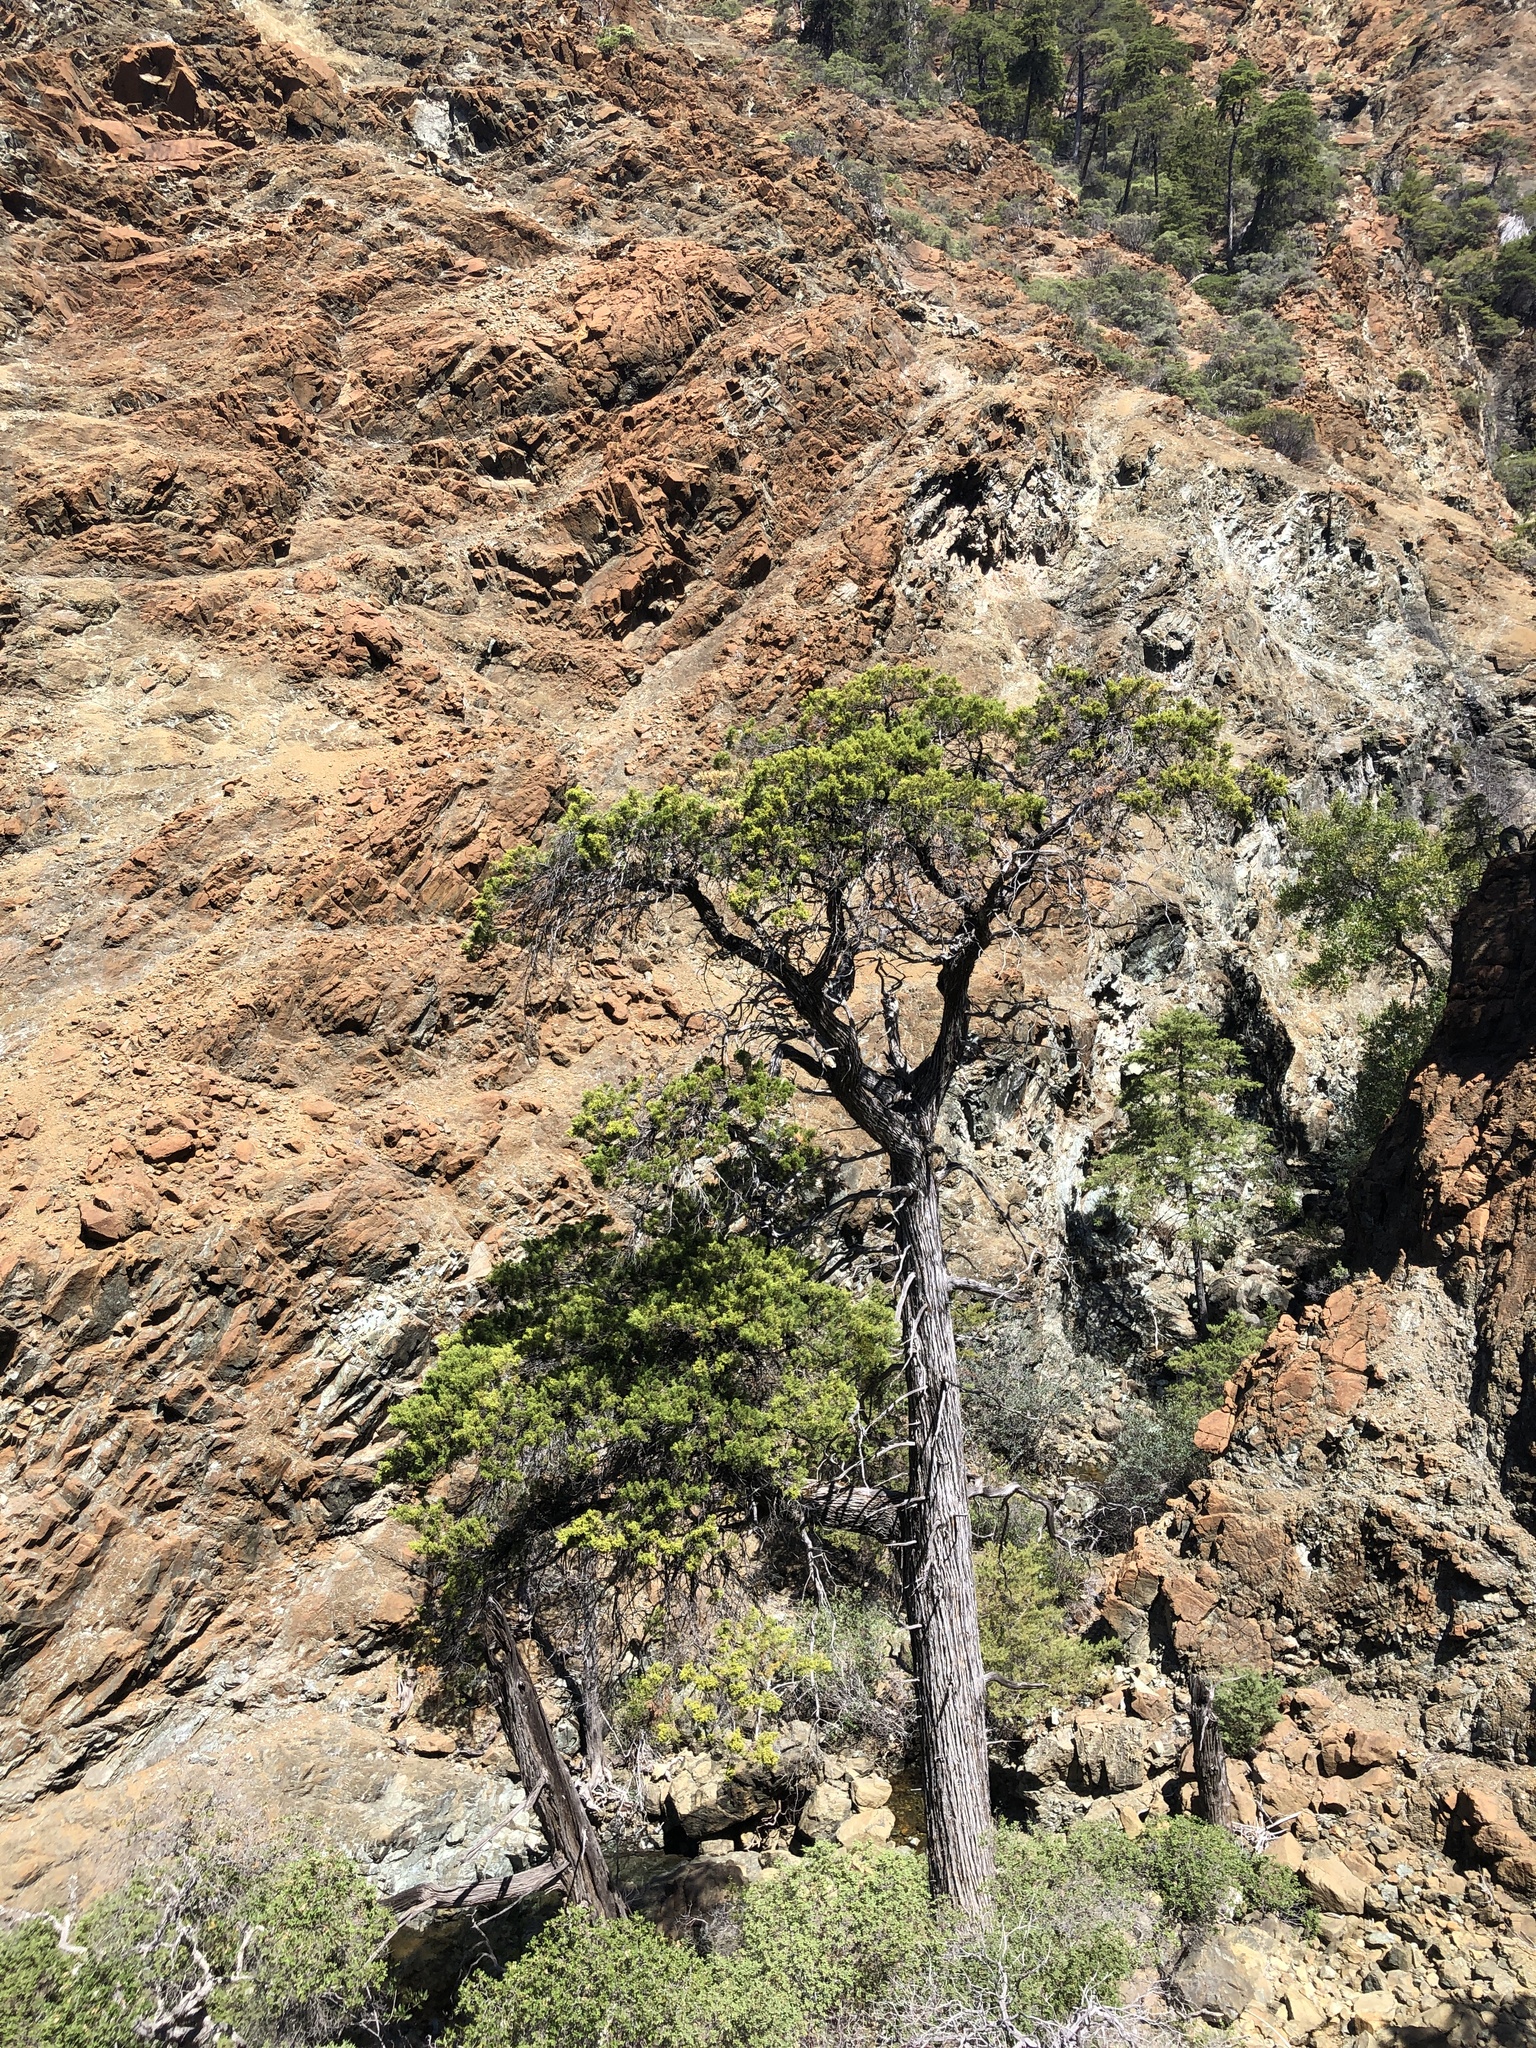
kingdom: Plantae
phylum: Tracheophyta
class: Pinopsida
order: Pinales
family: Cupressaceae
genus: Cupressus
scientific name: Cupressus sargentii
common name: Sargent cypress
